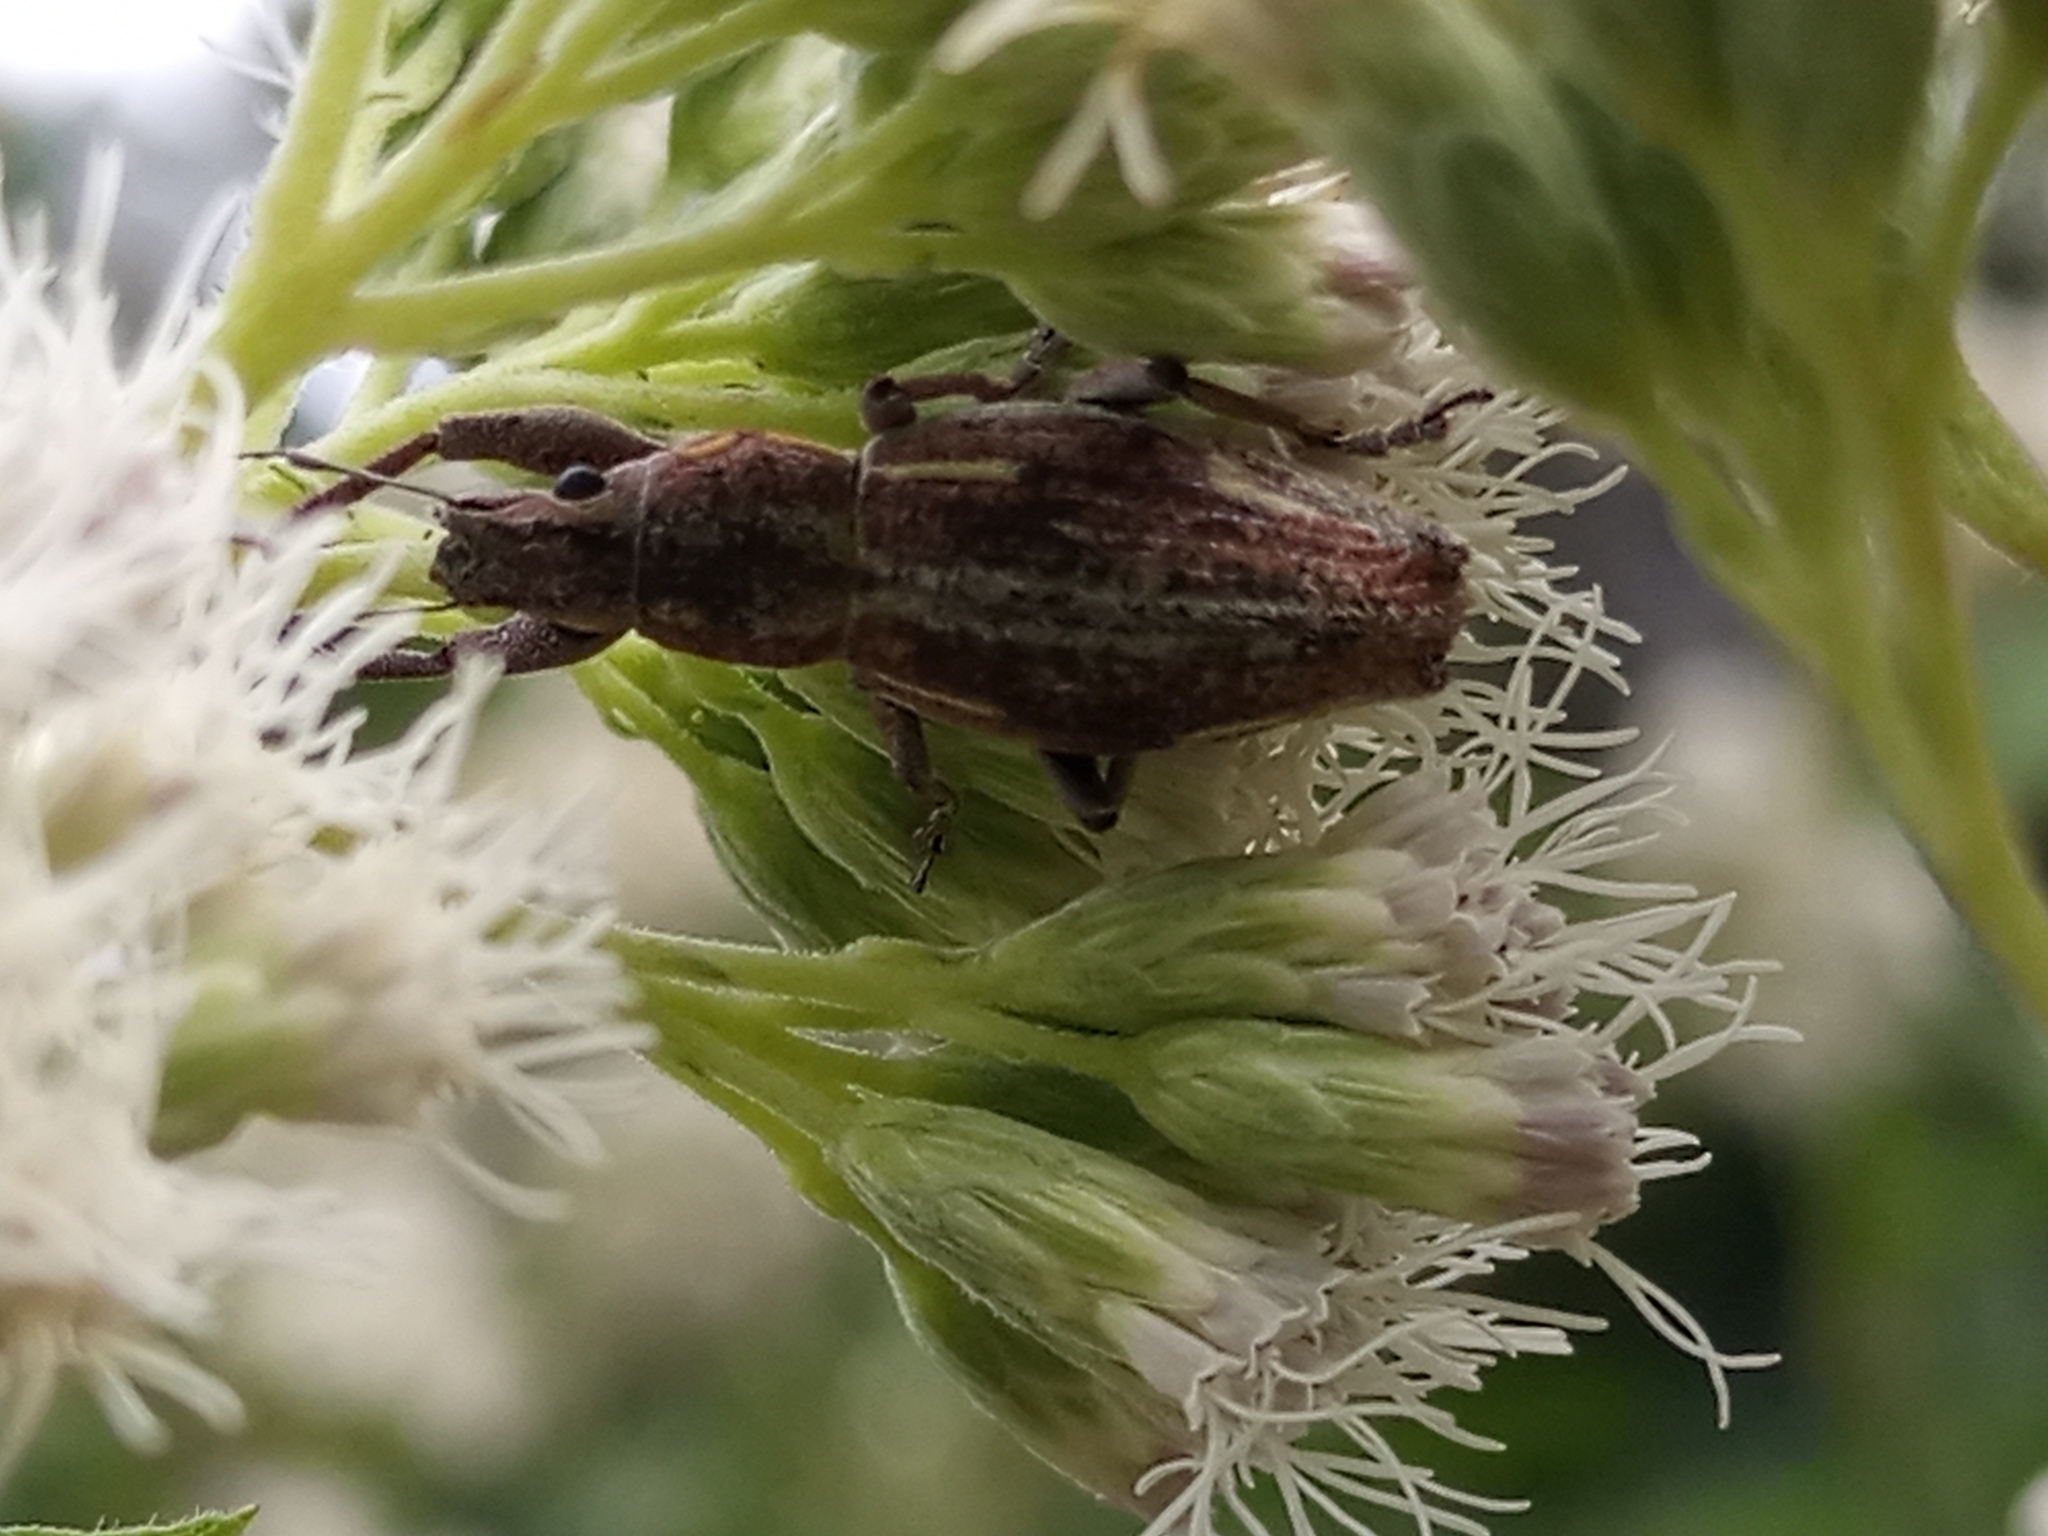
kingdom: Animalia
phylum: Arthropoda
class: Insecta
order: Coleoptera
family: Curculionidae
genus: Naupactus
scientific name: Naupactus xanthographus
